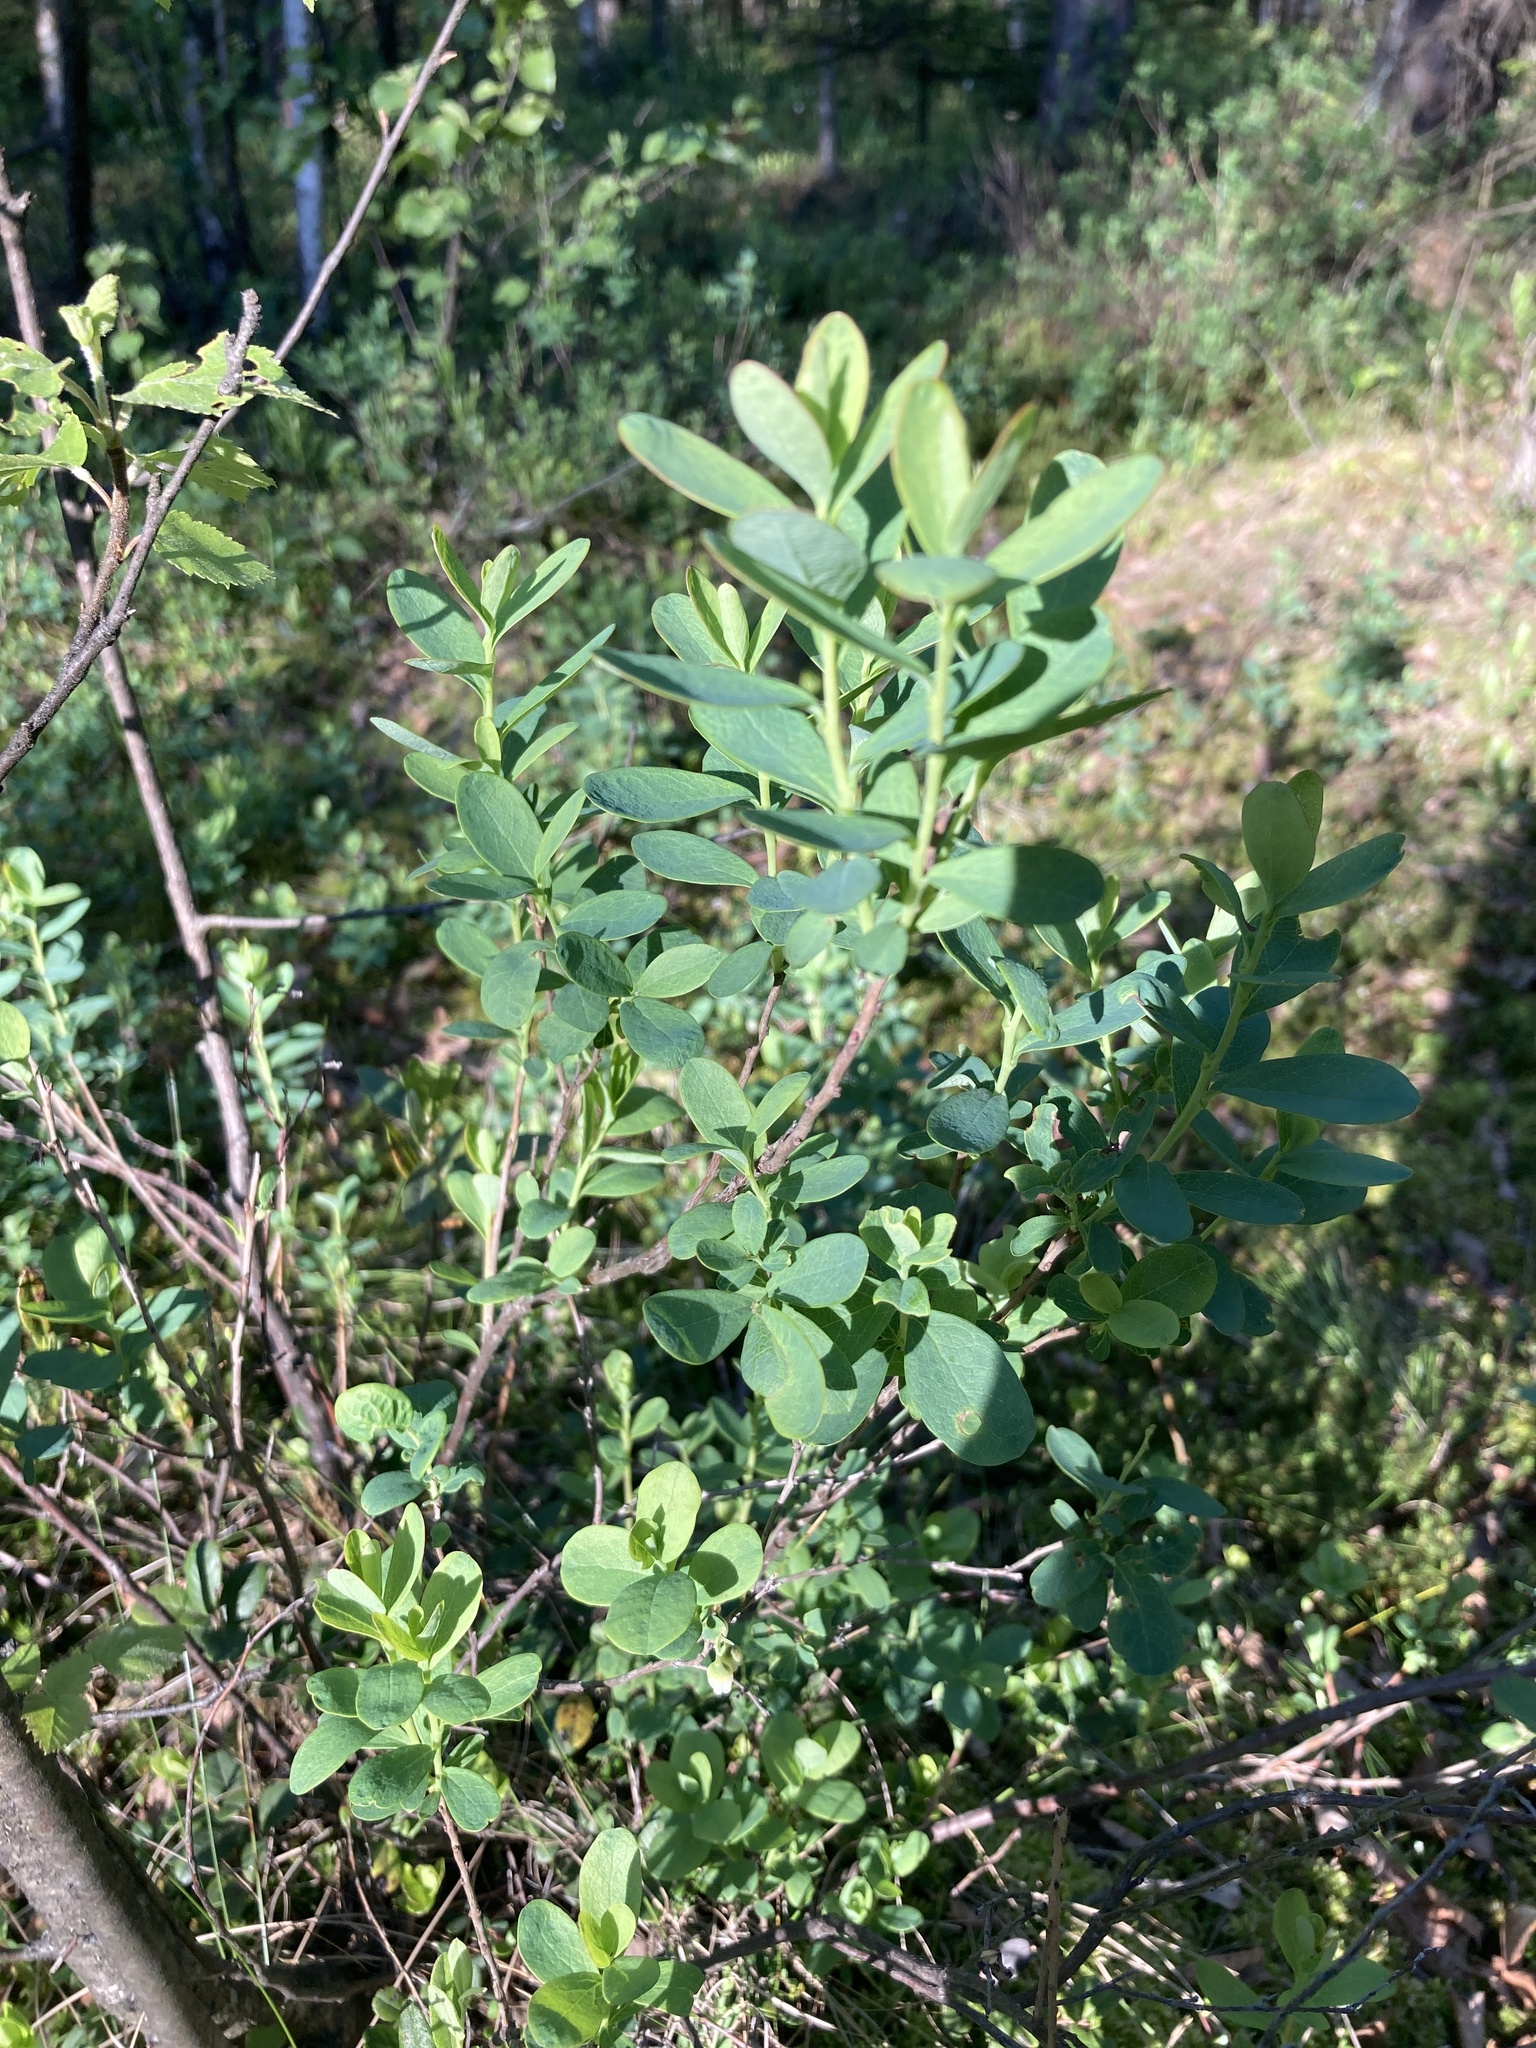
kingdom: Plantae
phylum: Tracheophyta
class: Magnoliopsida
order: Ericales
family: Ericaceae
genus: Vaccinium
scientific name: Vaccinium uliginosum
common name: Bog bilberry
